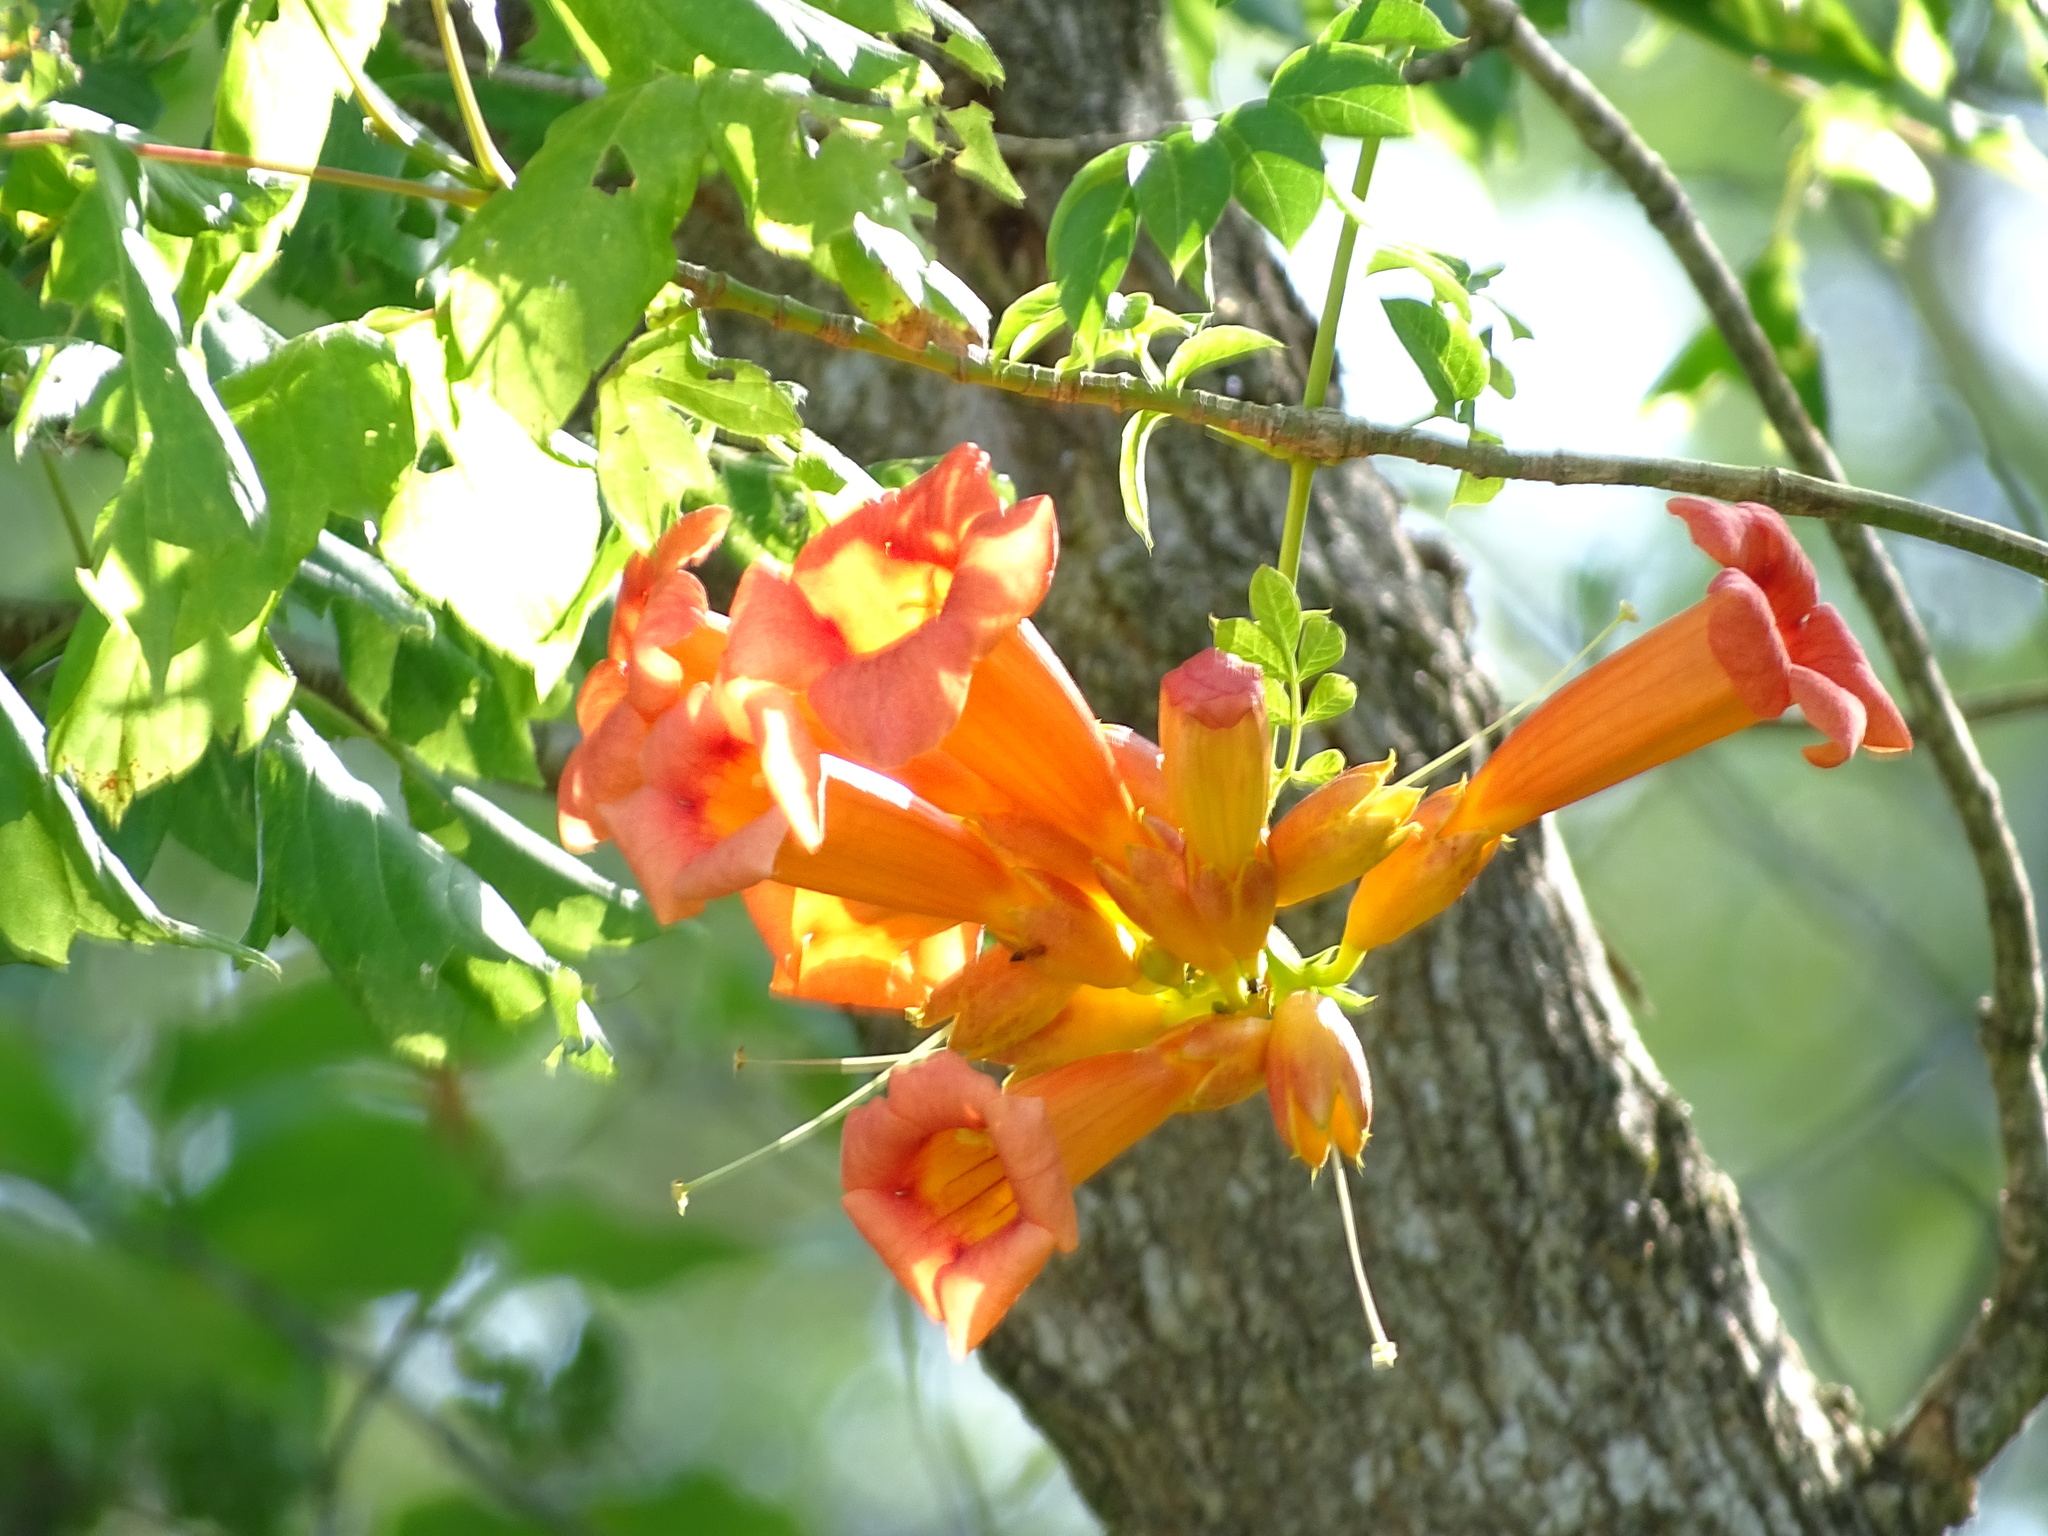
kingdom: Plantae
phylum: Tracheophyta
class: Magnoliopsida
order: Lamiales
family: Bignoniaceae
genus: Campsis
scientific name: Campsis radicans
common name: Trumpet-creeper
